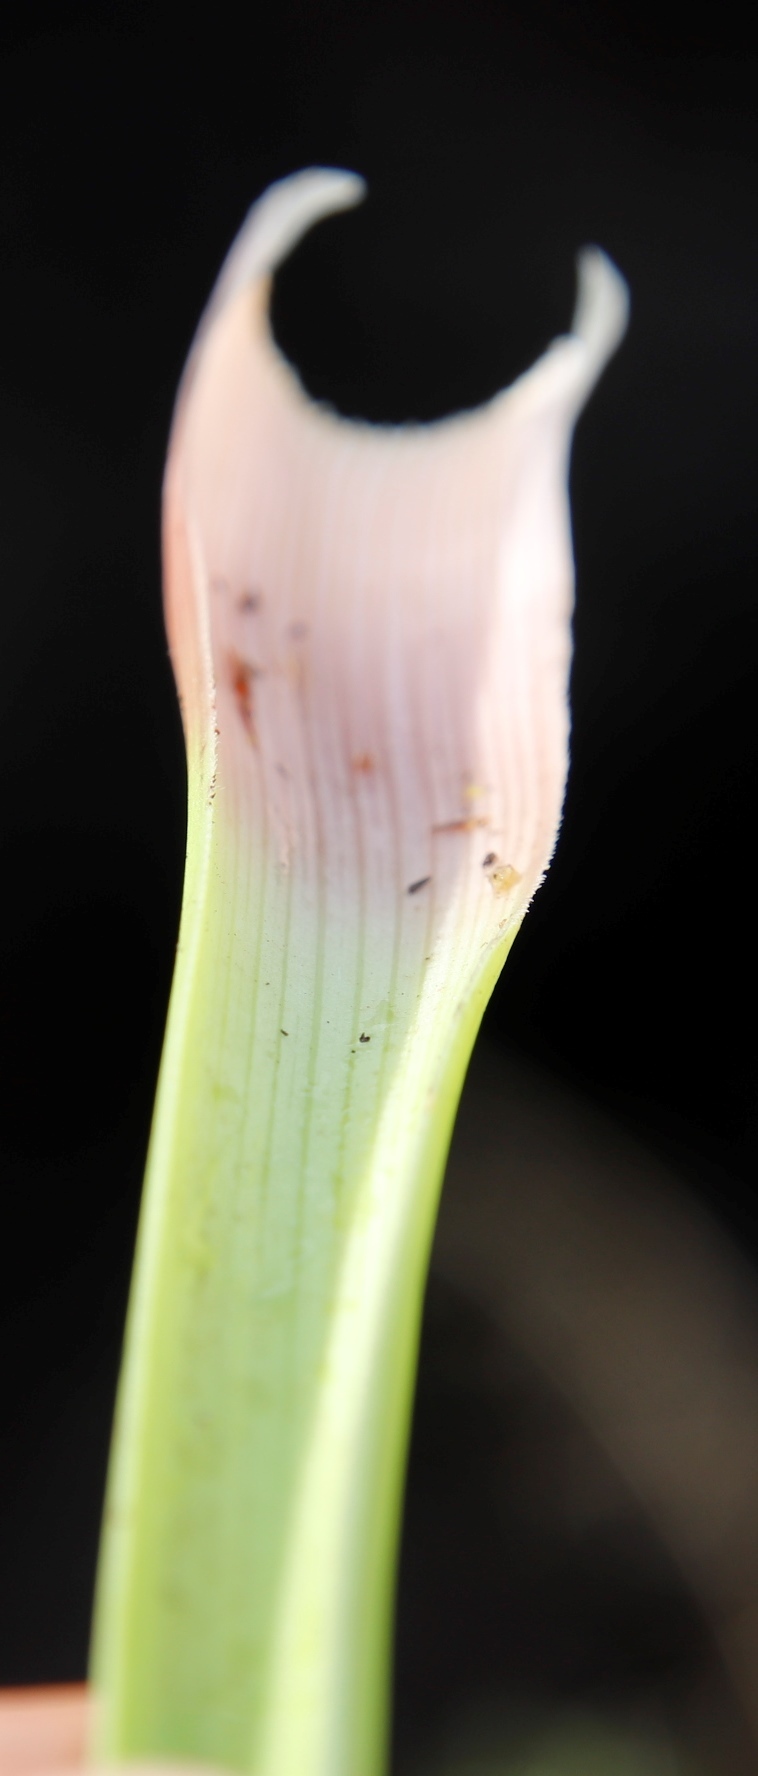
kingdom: Plantae
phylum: Tracheophyta
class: Liliopsida
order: Asparagales
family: Asphodelaceae
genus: Kniphofia
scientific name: Kniphofia stricta
